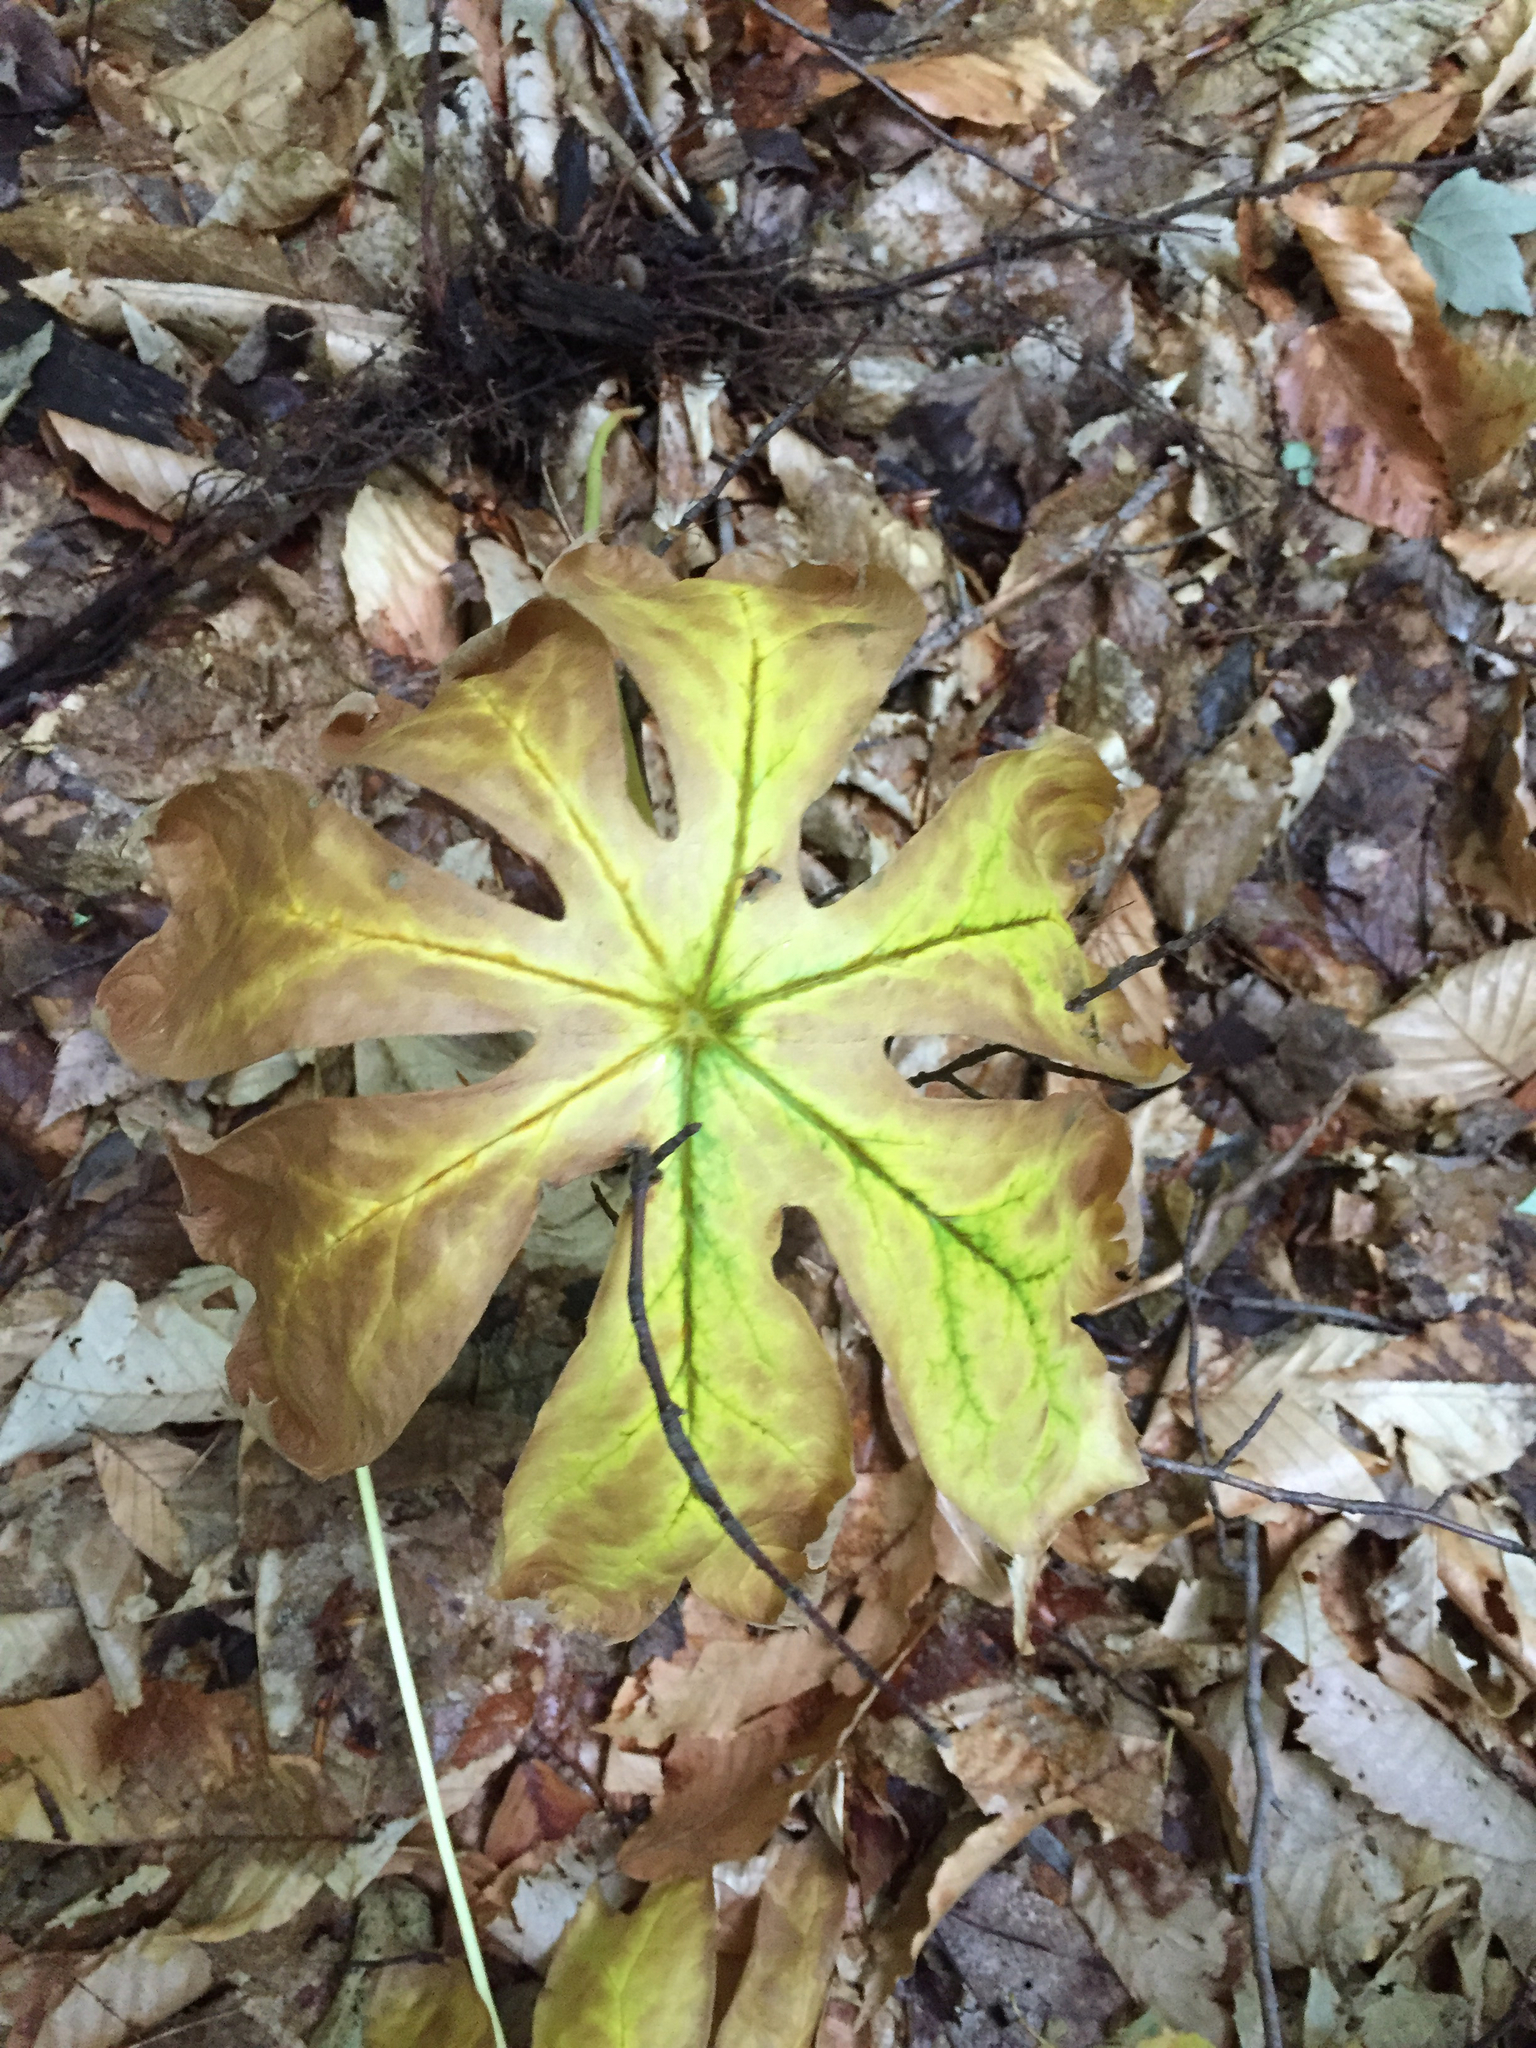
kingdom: Plantae
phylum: Tracheophyta
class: Magnoliopsida
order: Ranunculales
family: Berberidaceae
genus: Podophyllum
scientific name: Podophyllum peltatum
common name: Wild mandrake
